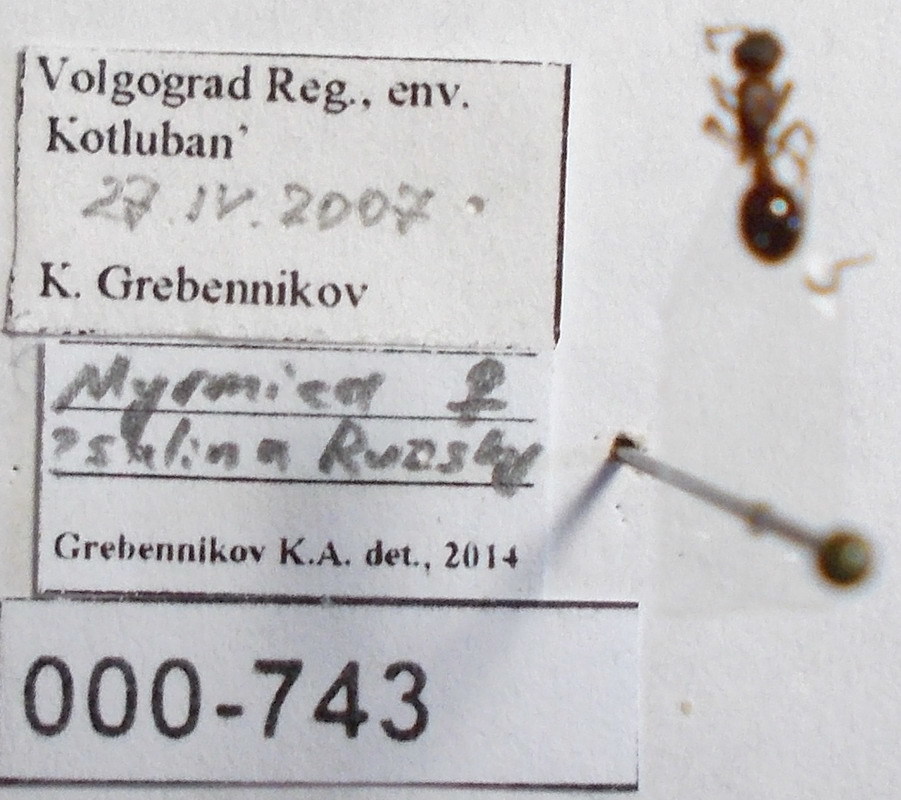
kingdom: Animalia
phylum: Arthropoda
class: Insecta
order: Hymenoptera
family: Formicidae
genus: Myrmica
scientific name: Myrmica sabuleti
